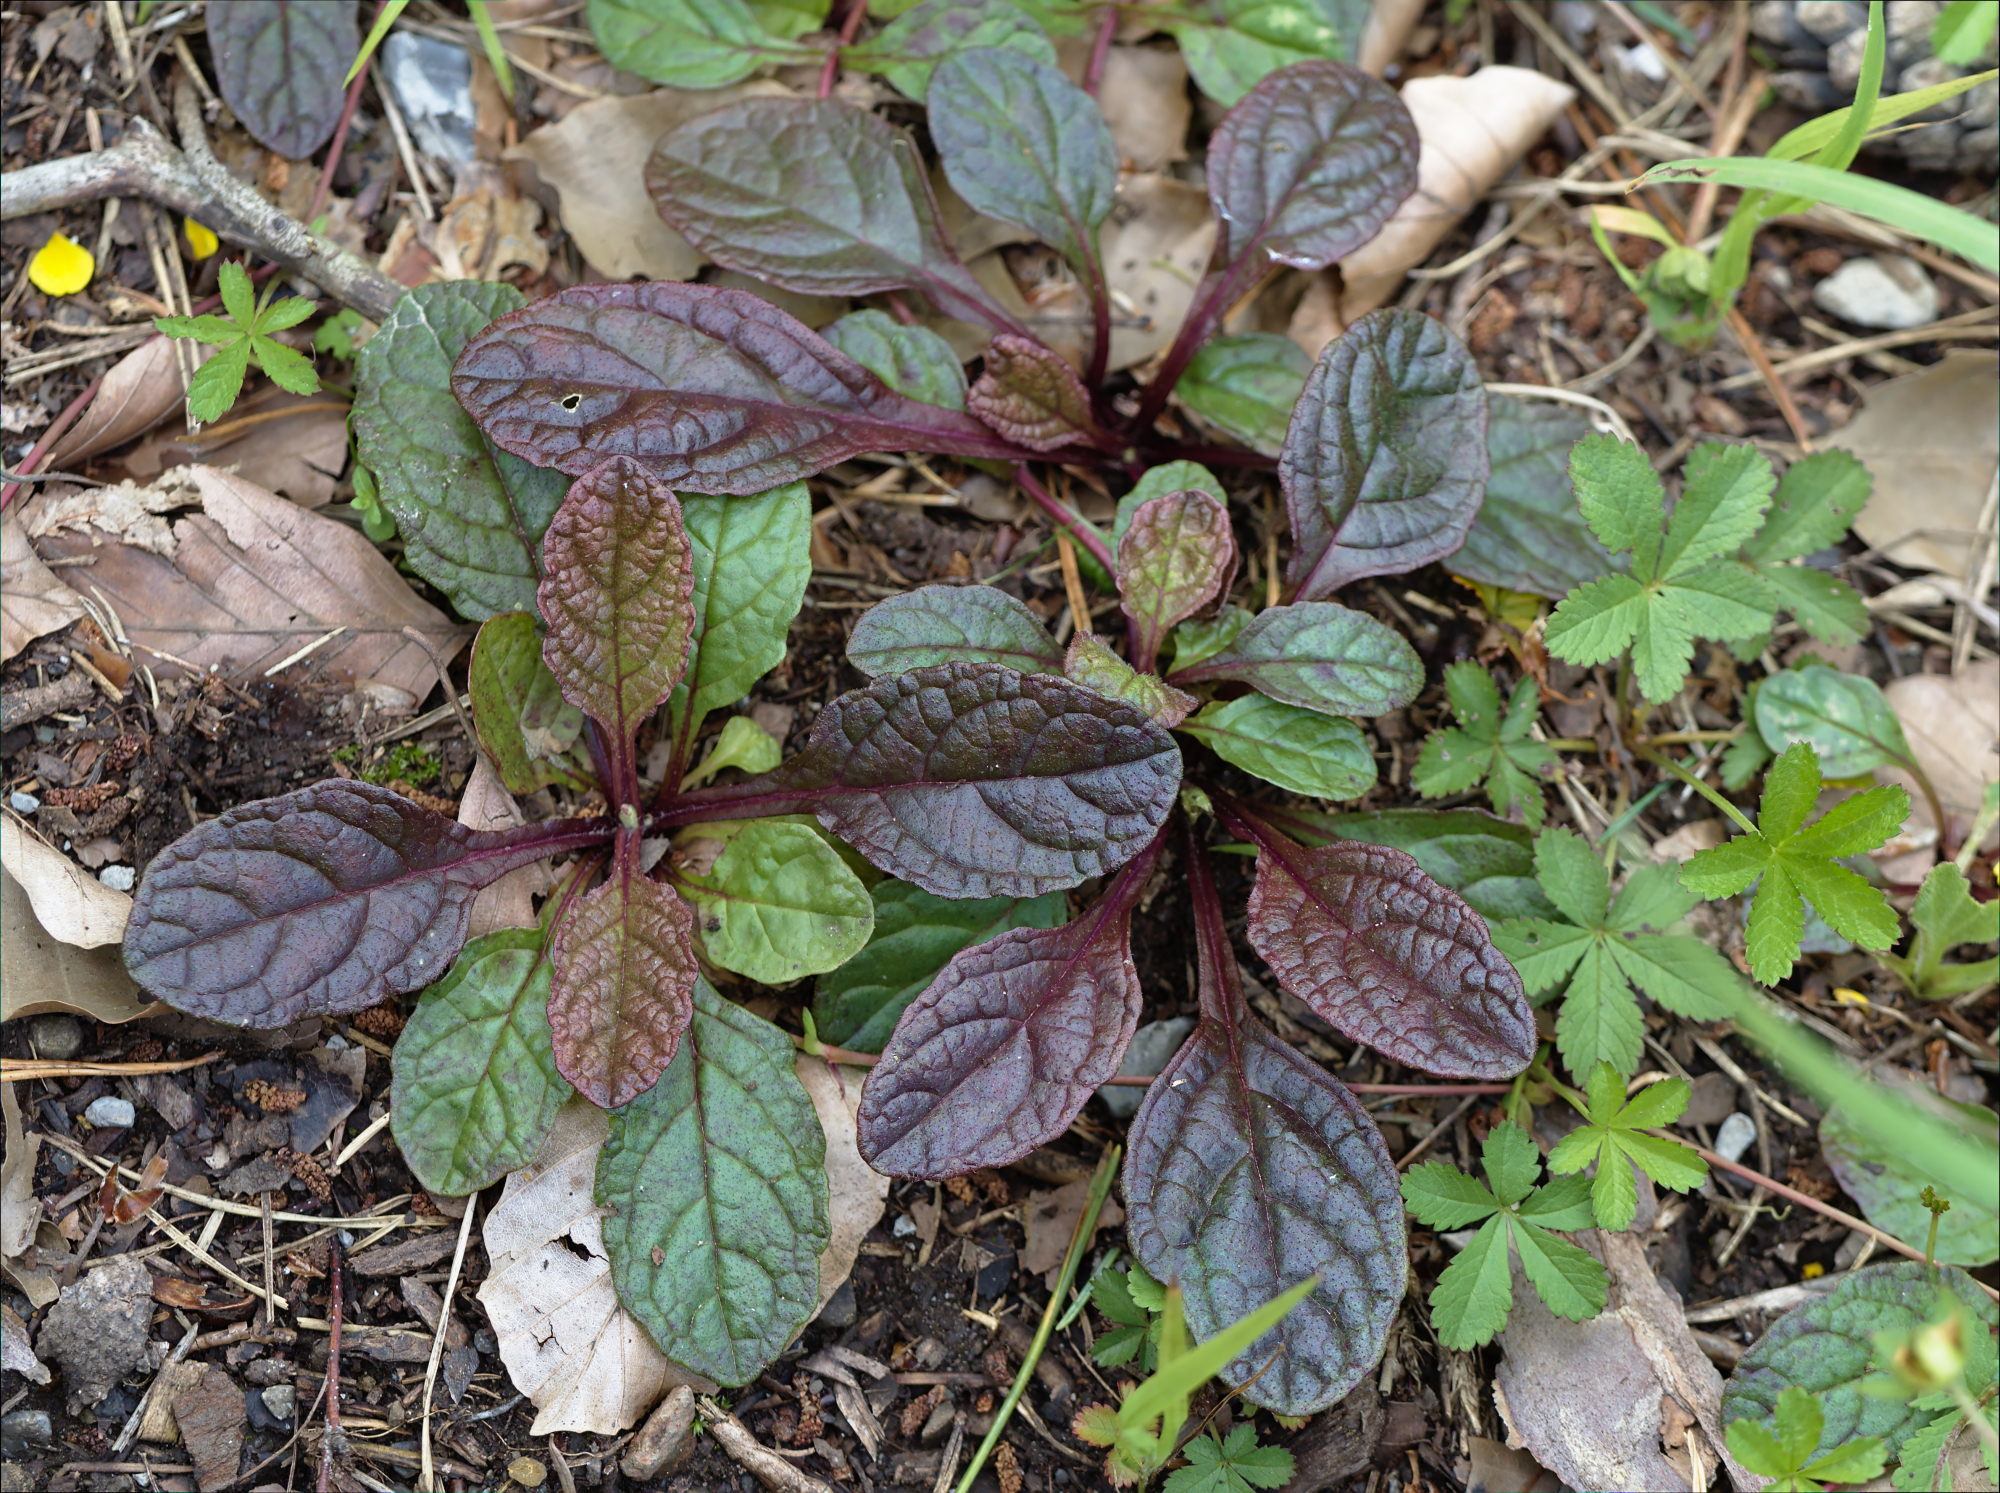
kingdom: Plantae
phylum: Tracheophyta
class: Magnoliopsida
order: Lamiales
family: Lamiaceae
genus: Ajuga
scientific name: Ajuga reptans
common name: Bugle
